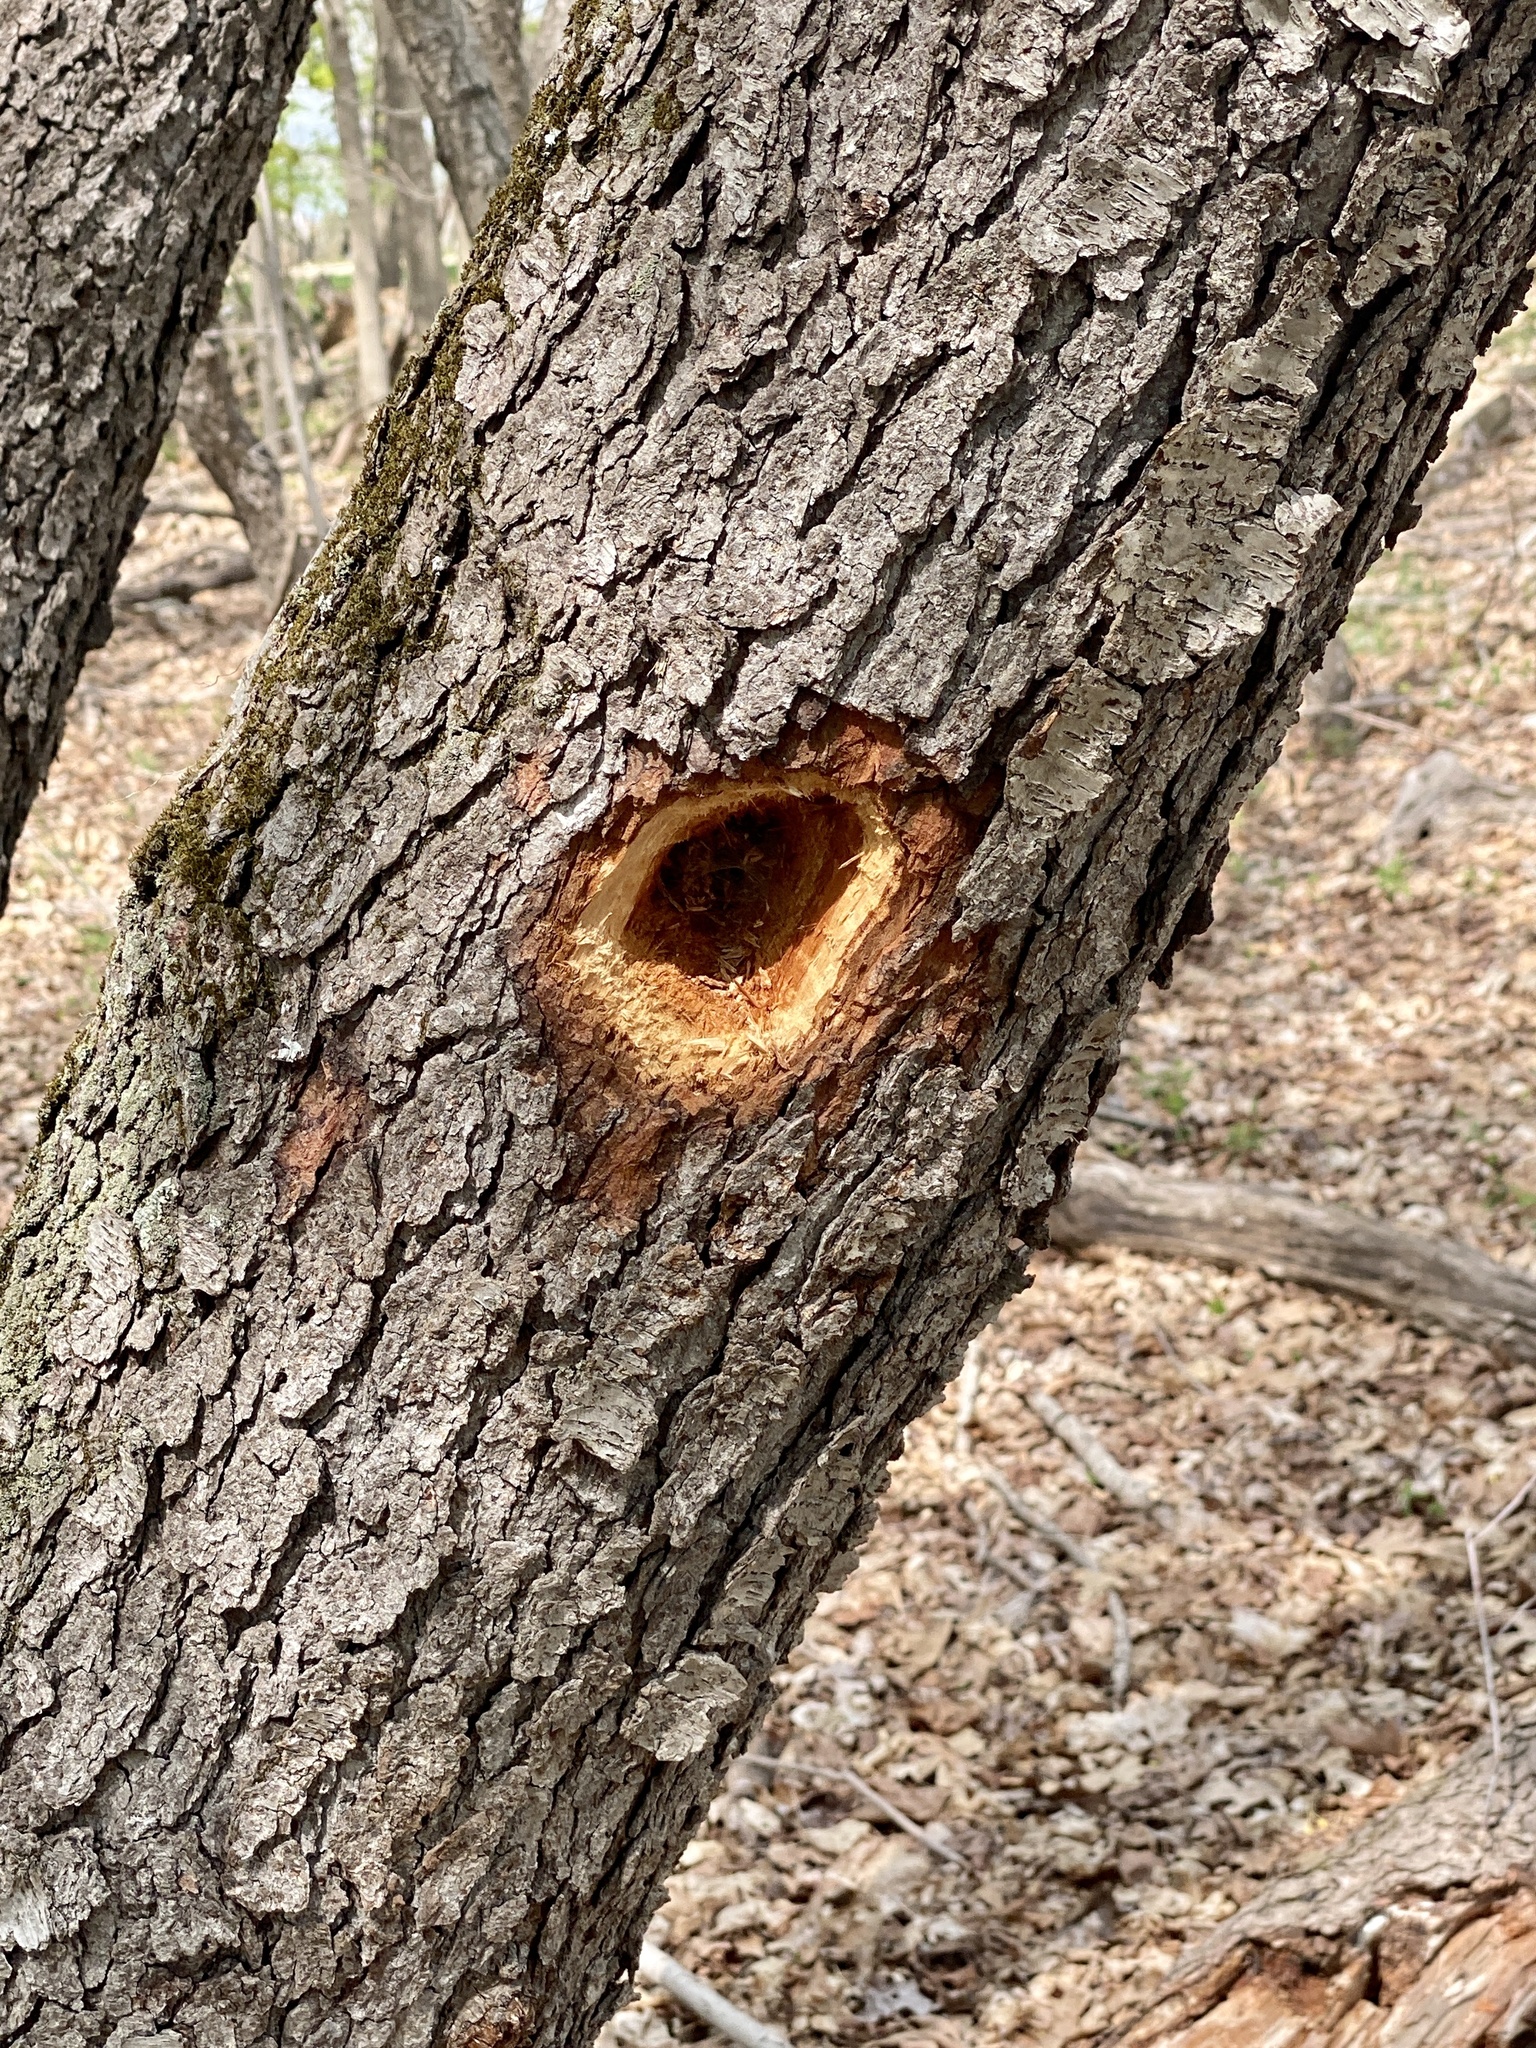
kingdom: Animalia
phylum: Chordata
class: Aves
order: Piciformes
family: Picidae
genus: Dryocopus
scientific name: Dryocopus pileatus
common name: Pileated woodpecker
